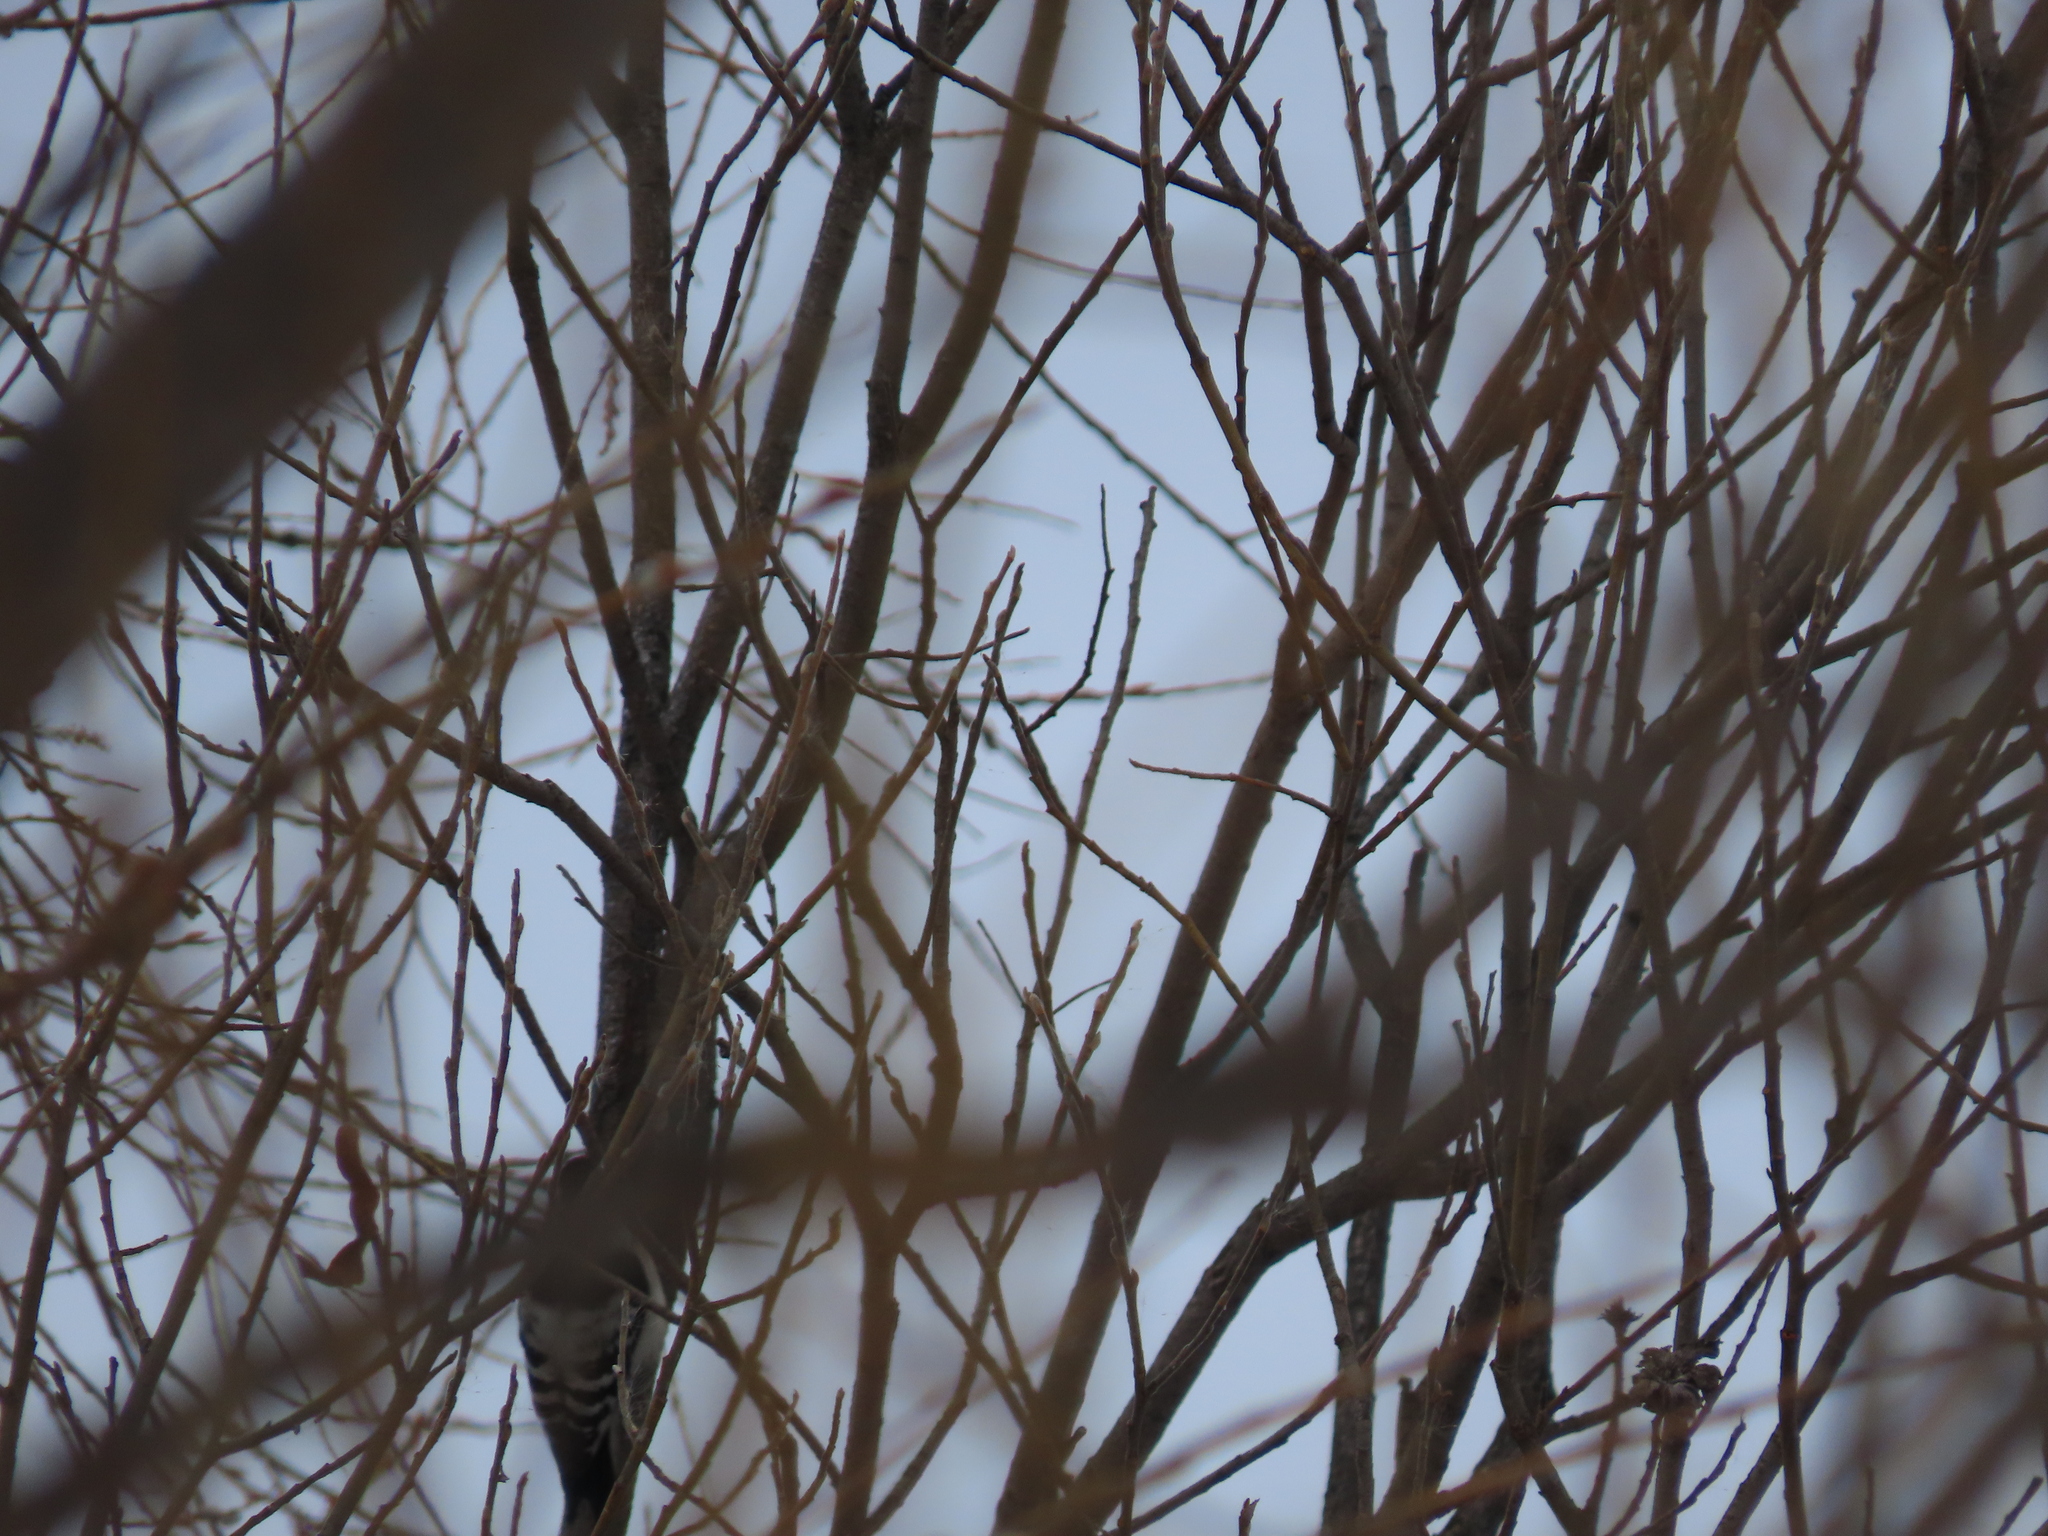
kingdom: Animalia
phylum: Chordata
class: Aves
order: Piciformes
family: Picidae
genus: Dryobates
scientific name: Dryobates minor
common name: Lesser spotted woodpecker
